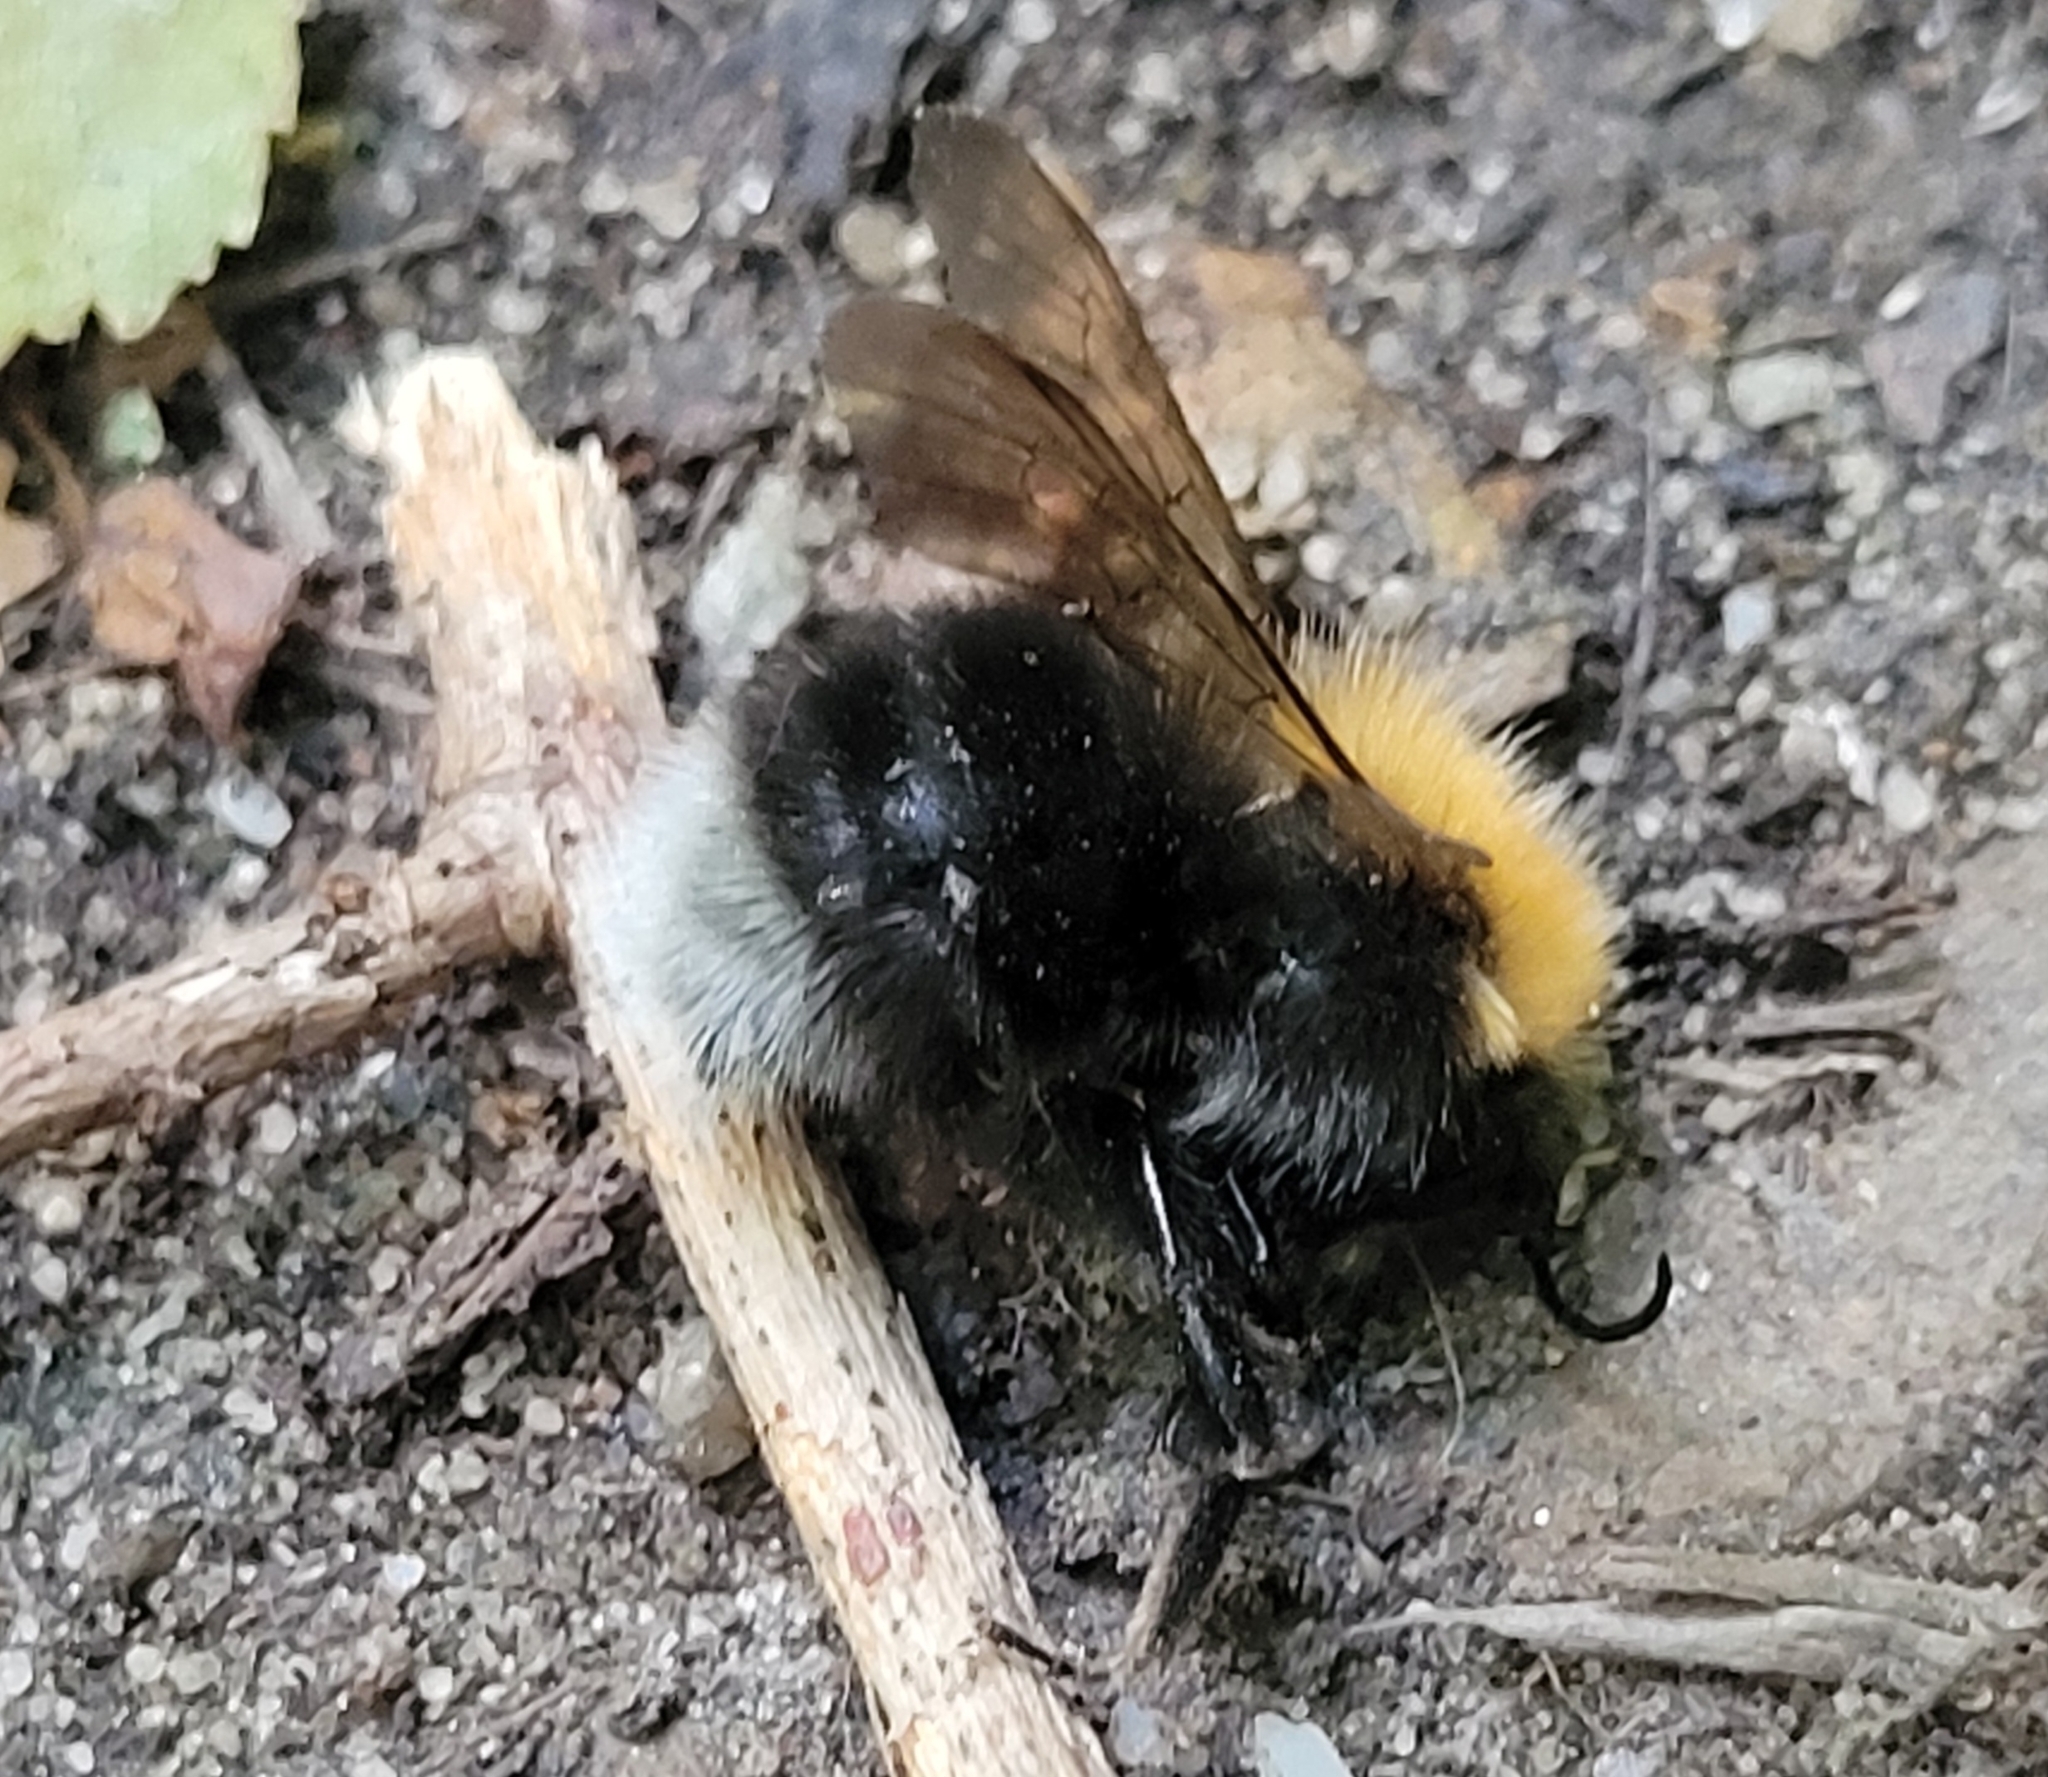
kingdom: Animalia
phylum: Arthropoda
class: Insecta
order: Hymenoptera
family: Apidae
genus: Bombus
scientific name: Bombus hypnorum
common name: New garden bumblebee
